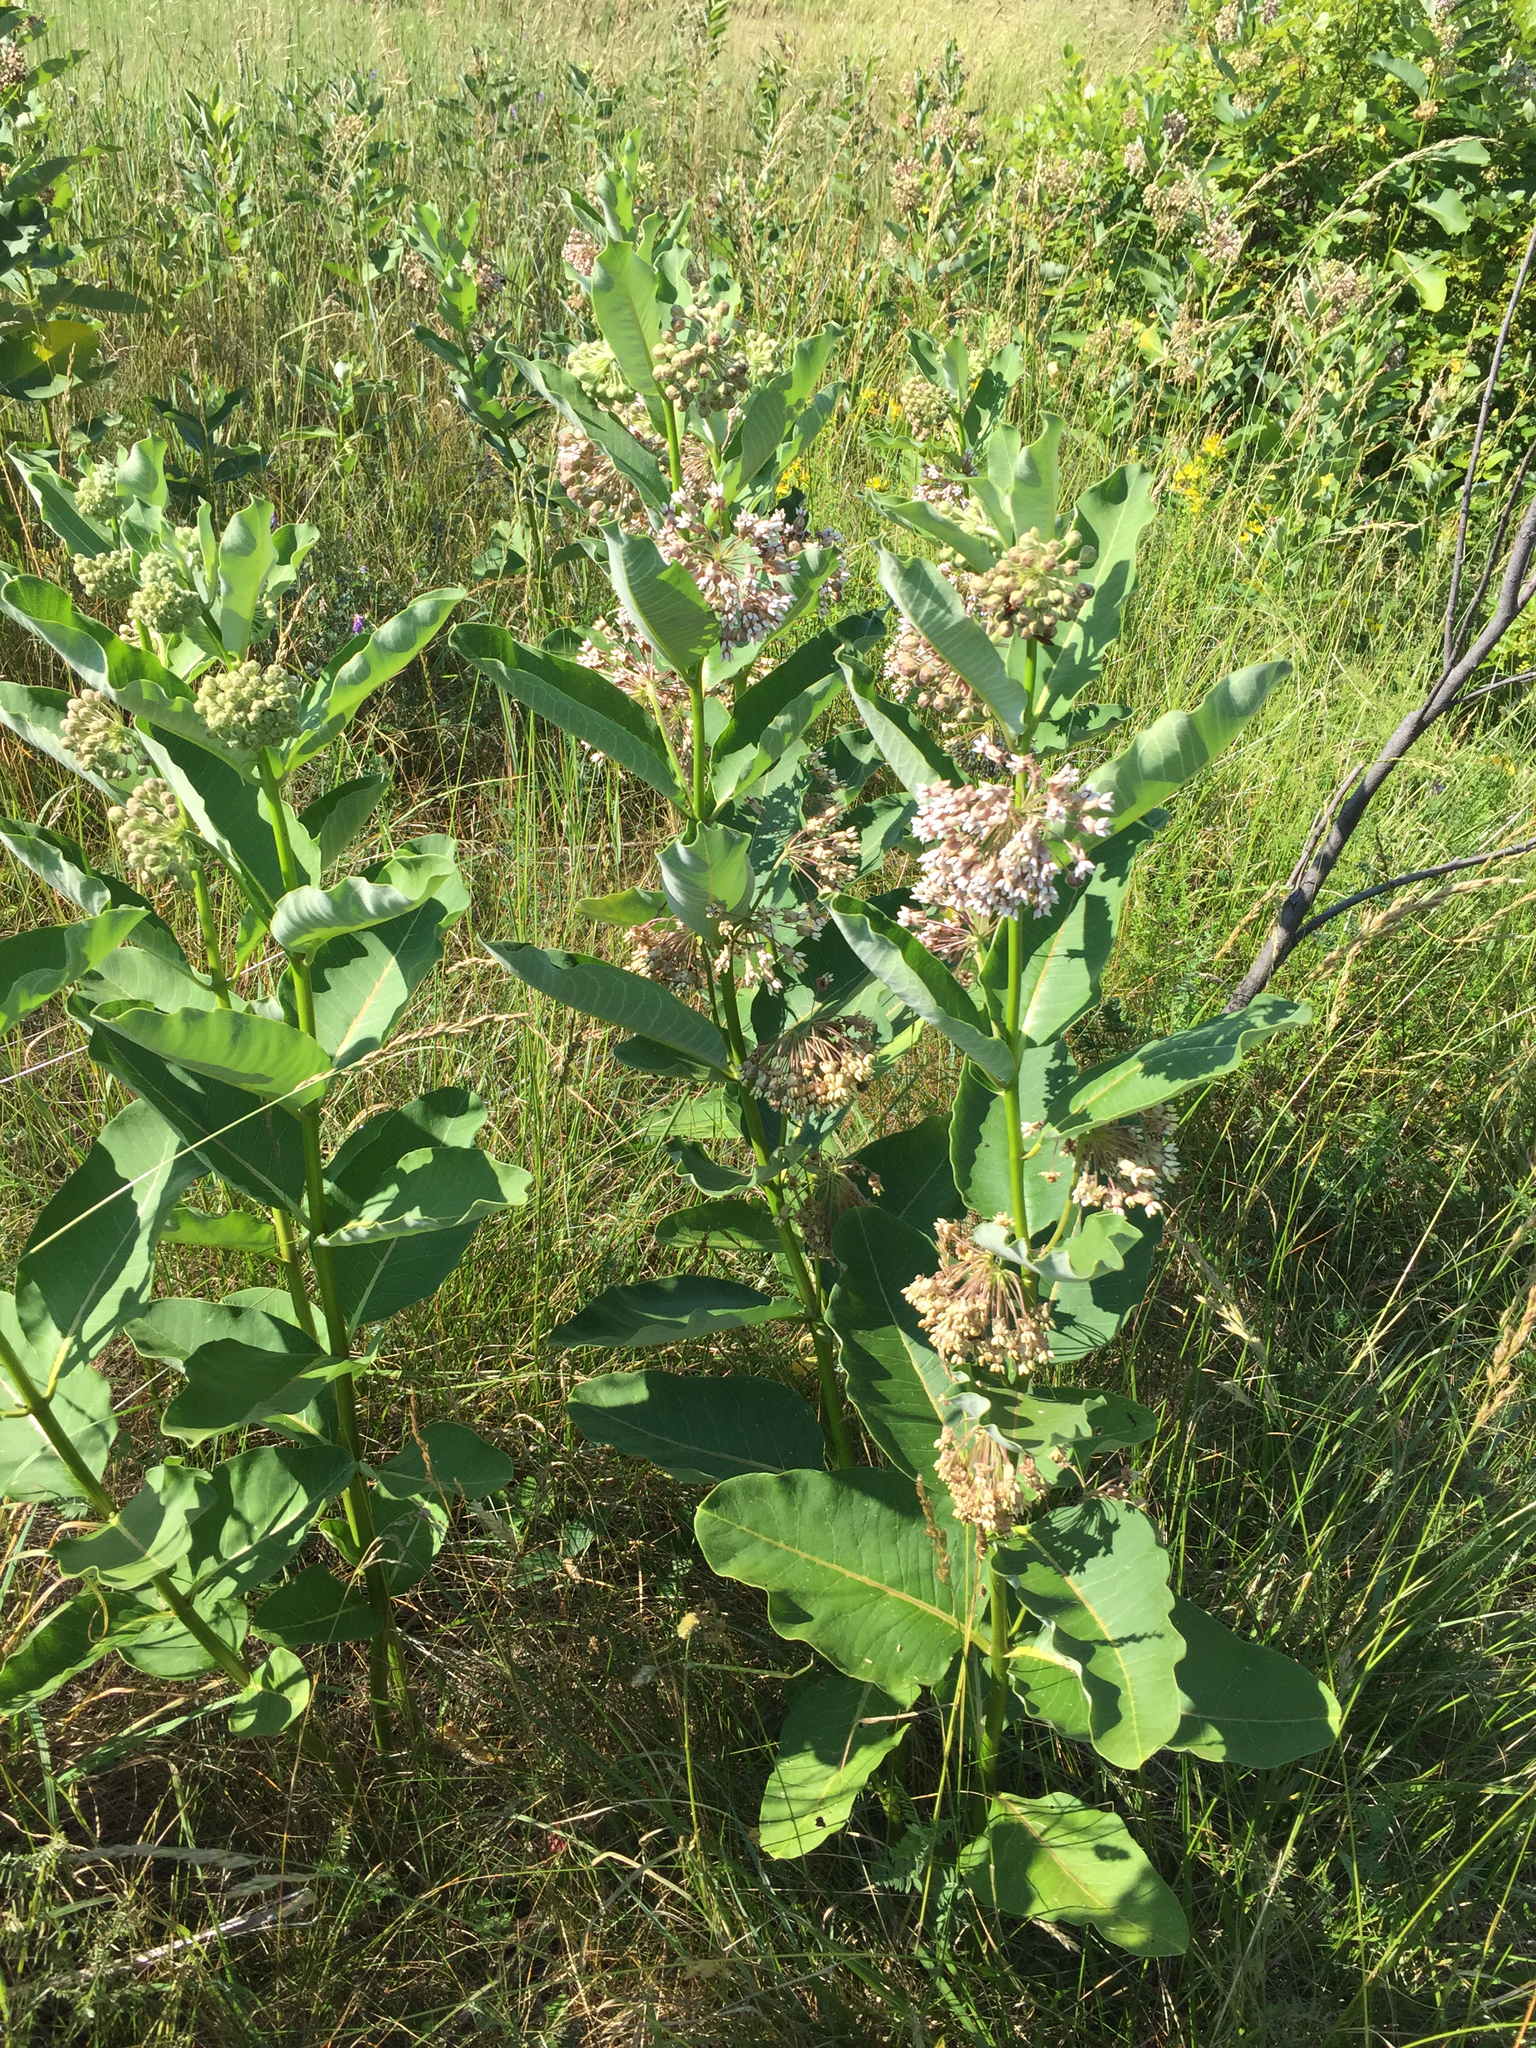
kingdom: Plantae
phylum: Tracheophyta
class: Magnoliopsida
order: Gentianales
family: Apocynaceae
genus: Asclepias
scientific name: Asclepias syriaca
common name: Common milkweed
